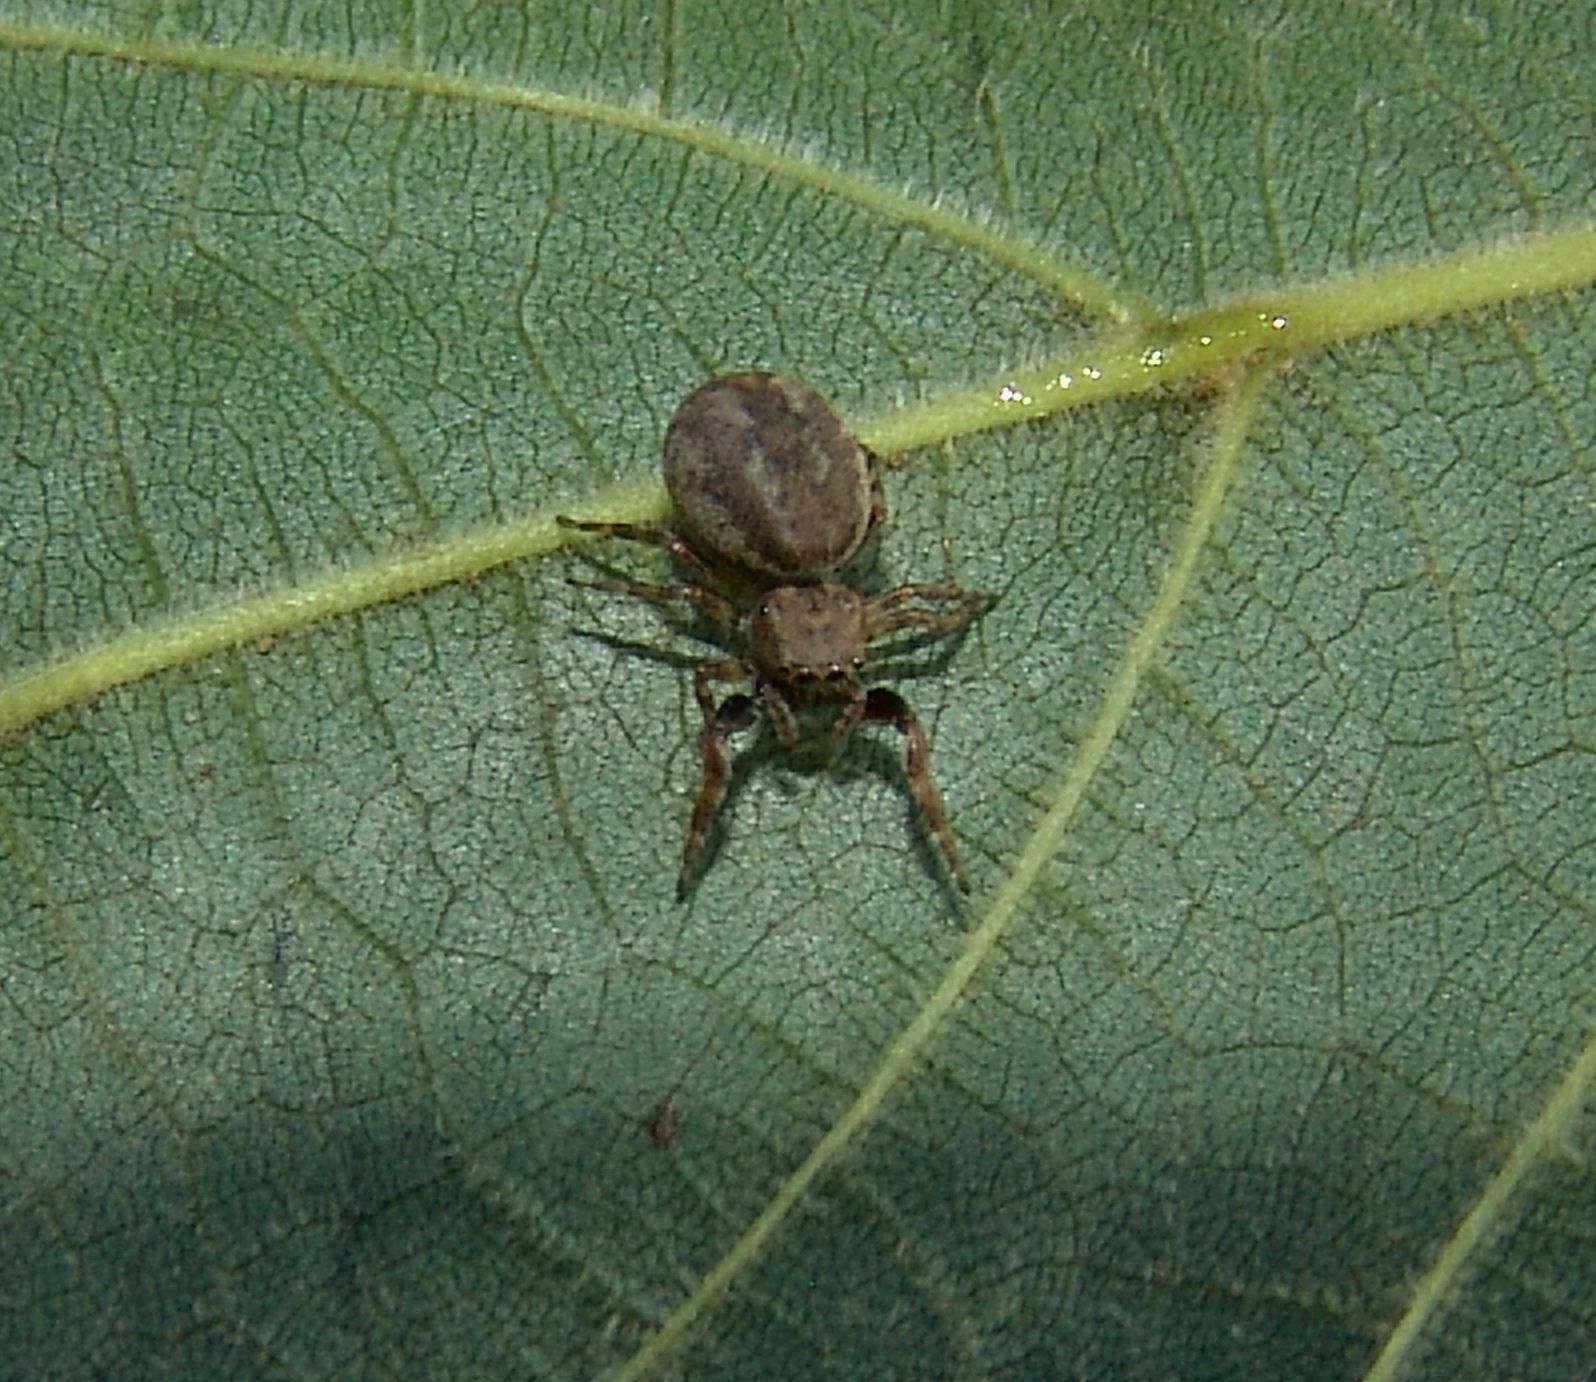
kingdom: Animalia
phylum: Arthropoda
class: Arachnida
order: Araneae
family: Salticidae
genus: Zygoballus
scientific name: Zygoballus rufipes
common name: Jumping spiders
